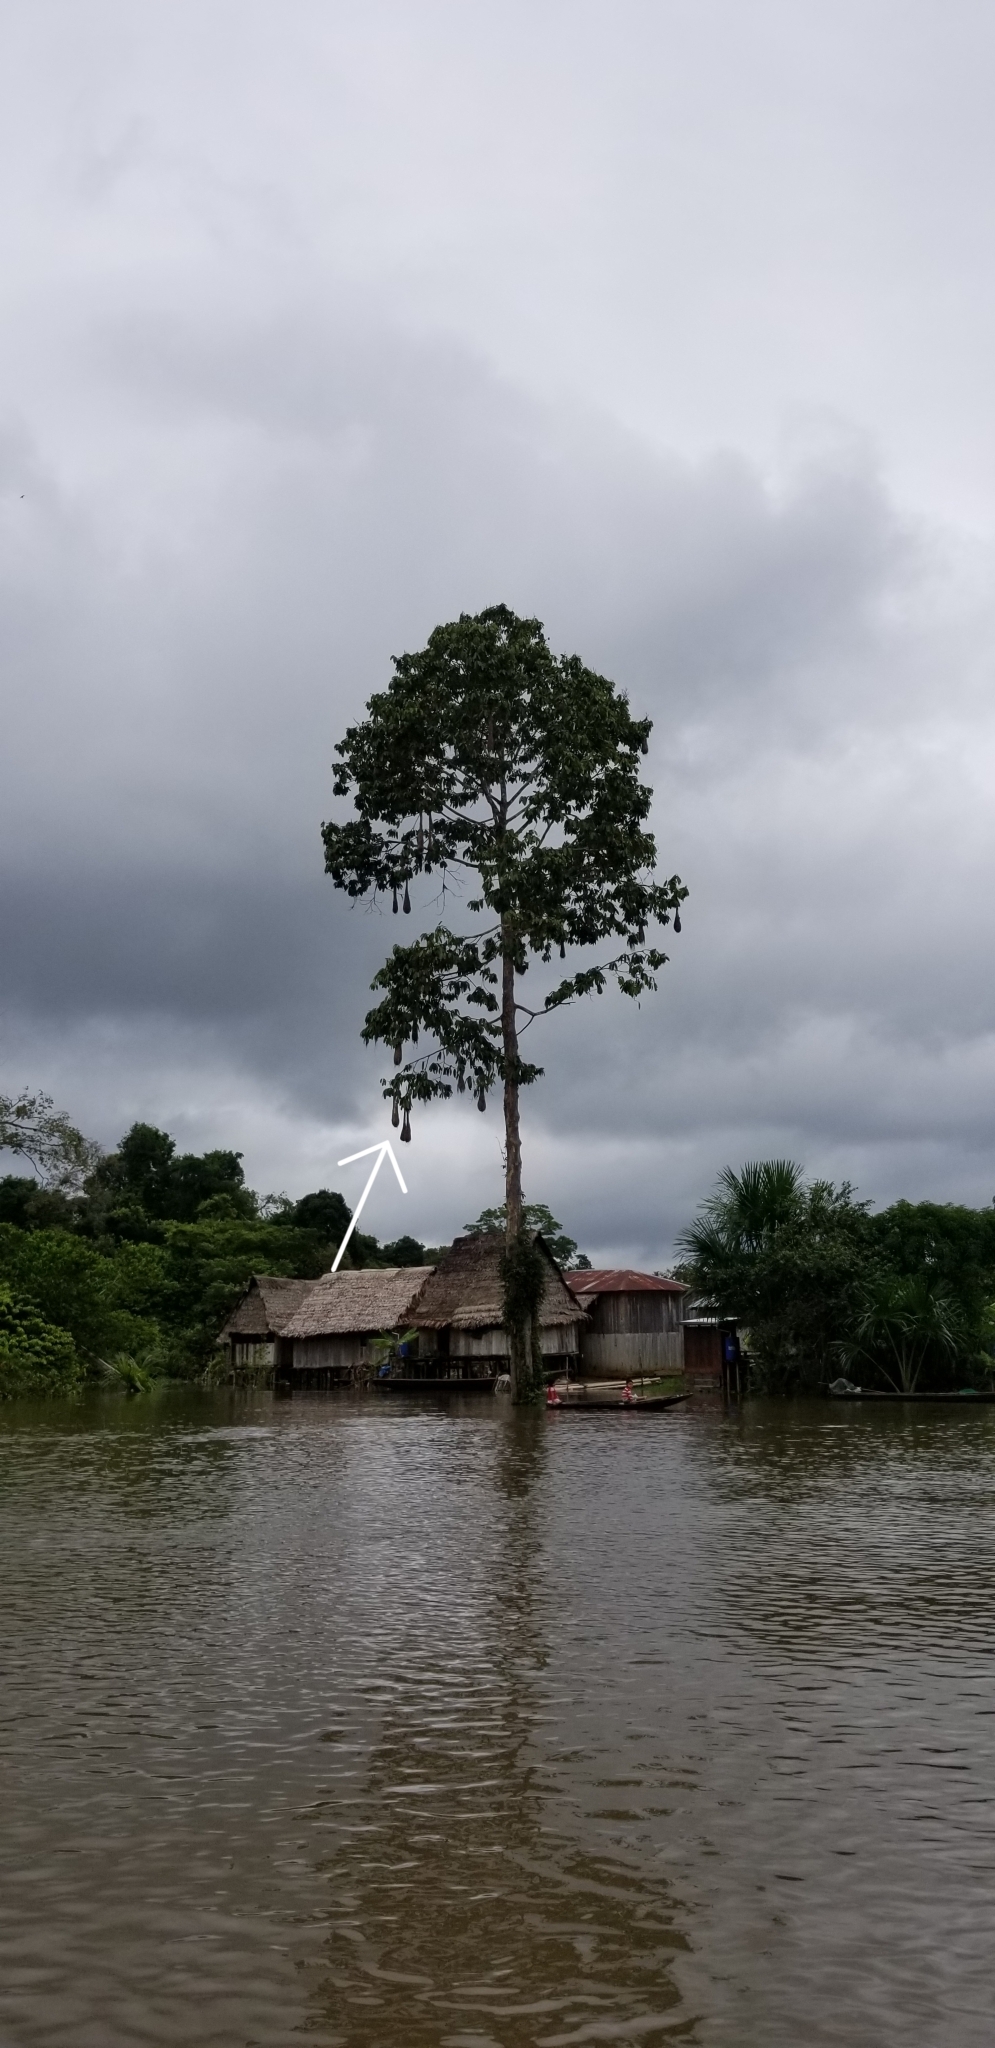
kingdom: Animalia
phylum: Chordata
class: Aves
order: Passeriformes
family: Icteridae
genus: Psarocolius
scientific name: Psarocolius
